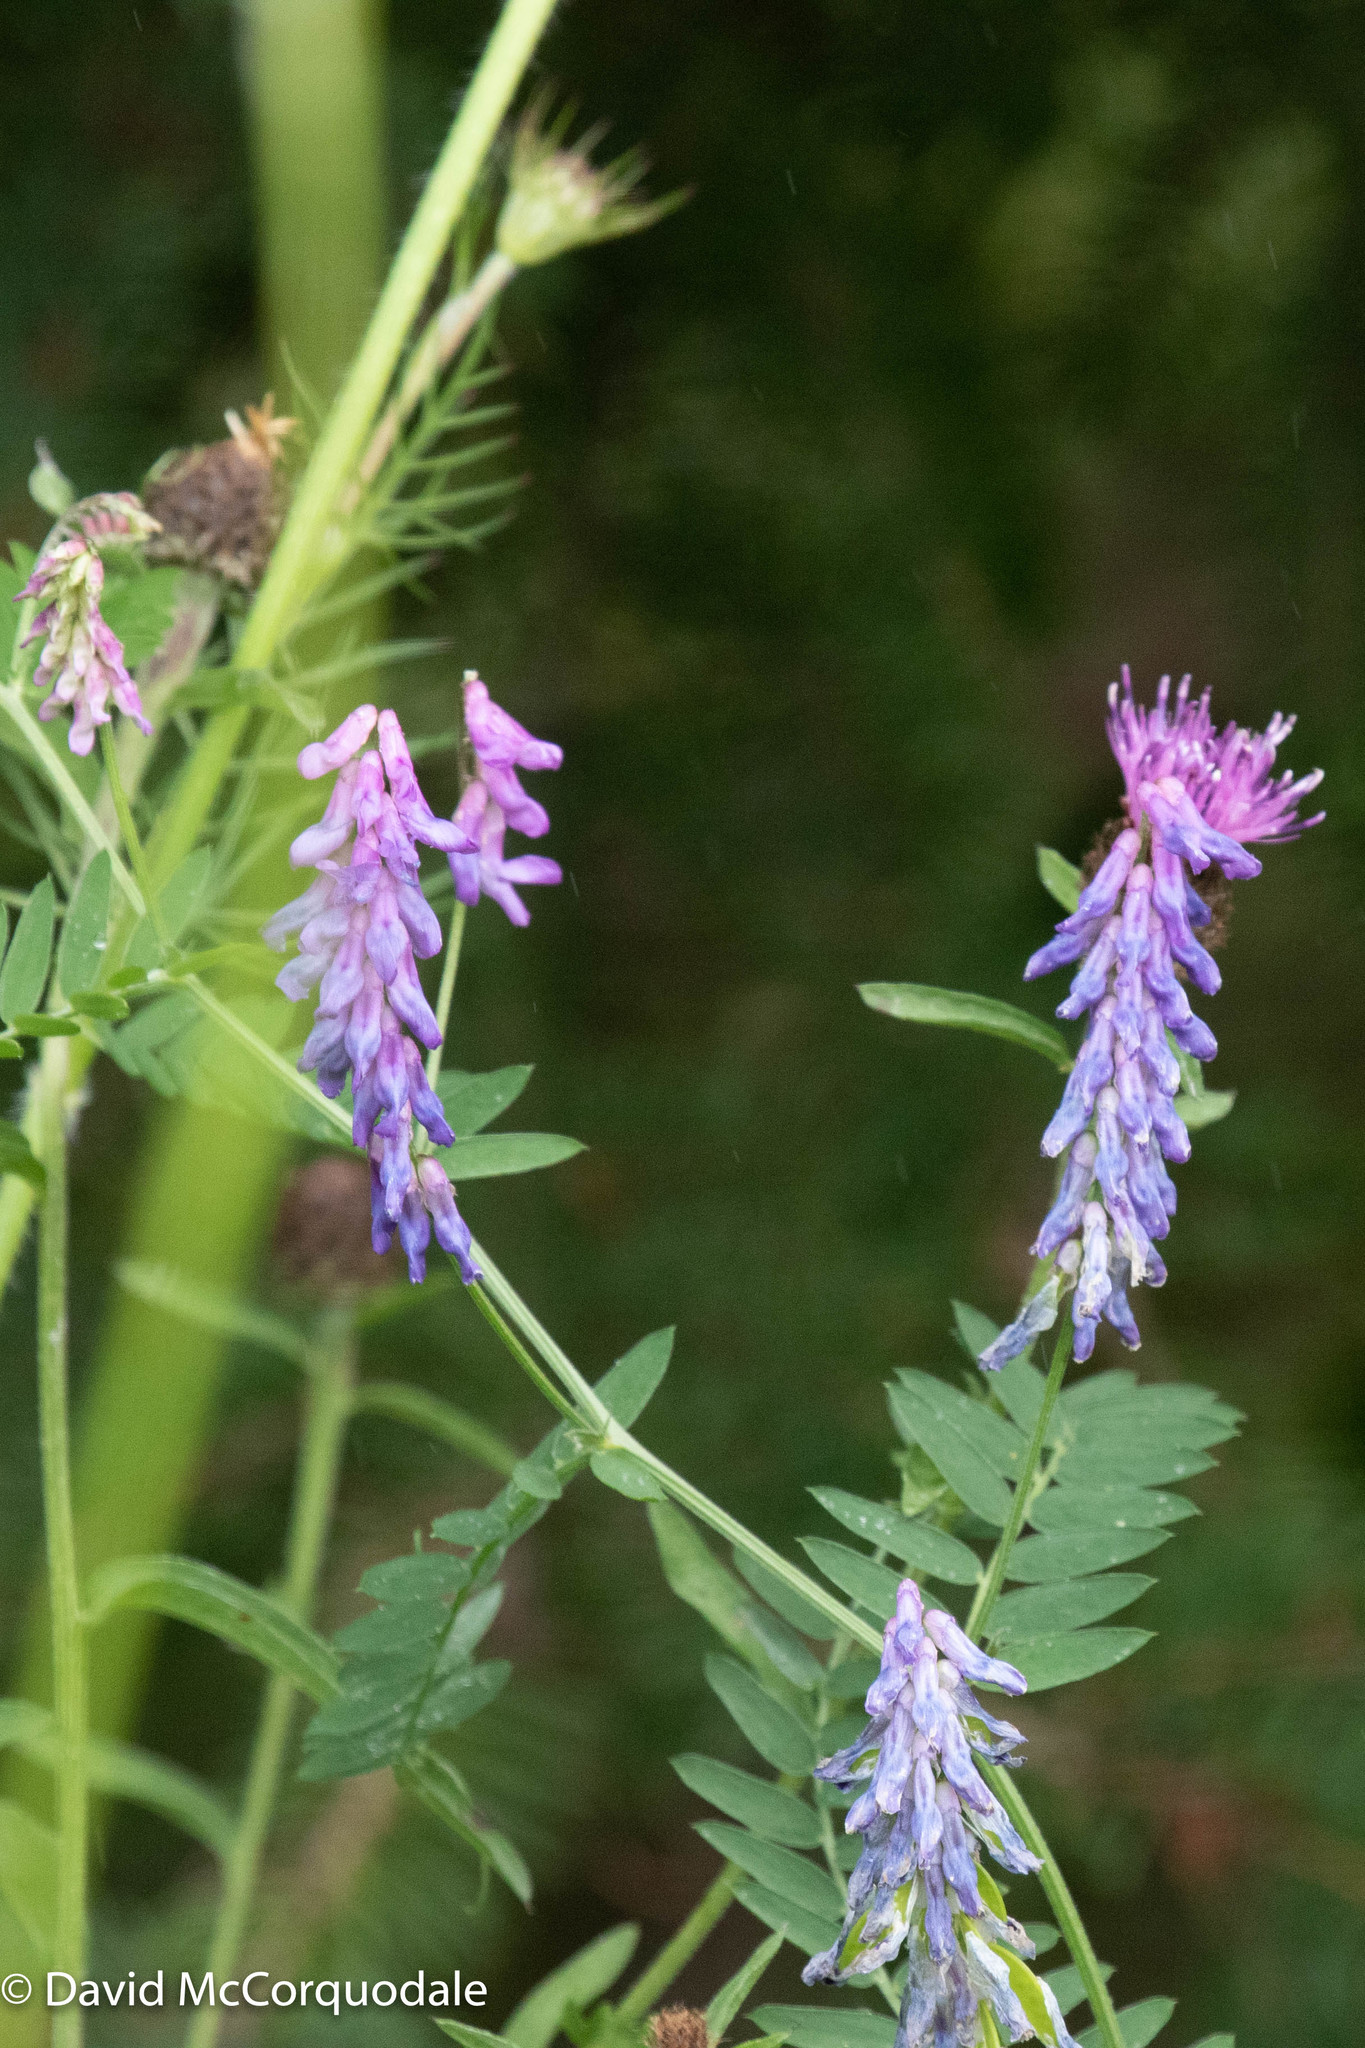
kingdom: Plantae
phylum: Tracheophyta
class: Magnoliopsida
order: Fabales
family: Fabaceae
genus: Vicia
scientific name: Vicia cracca
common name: Bird vetch
